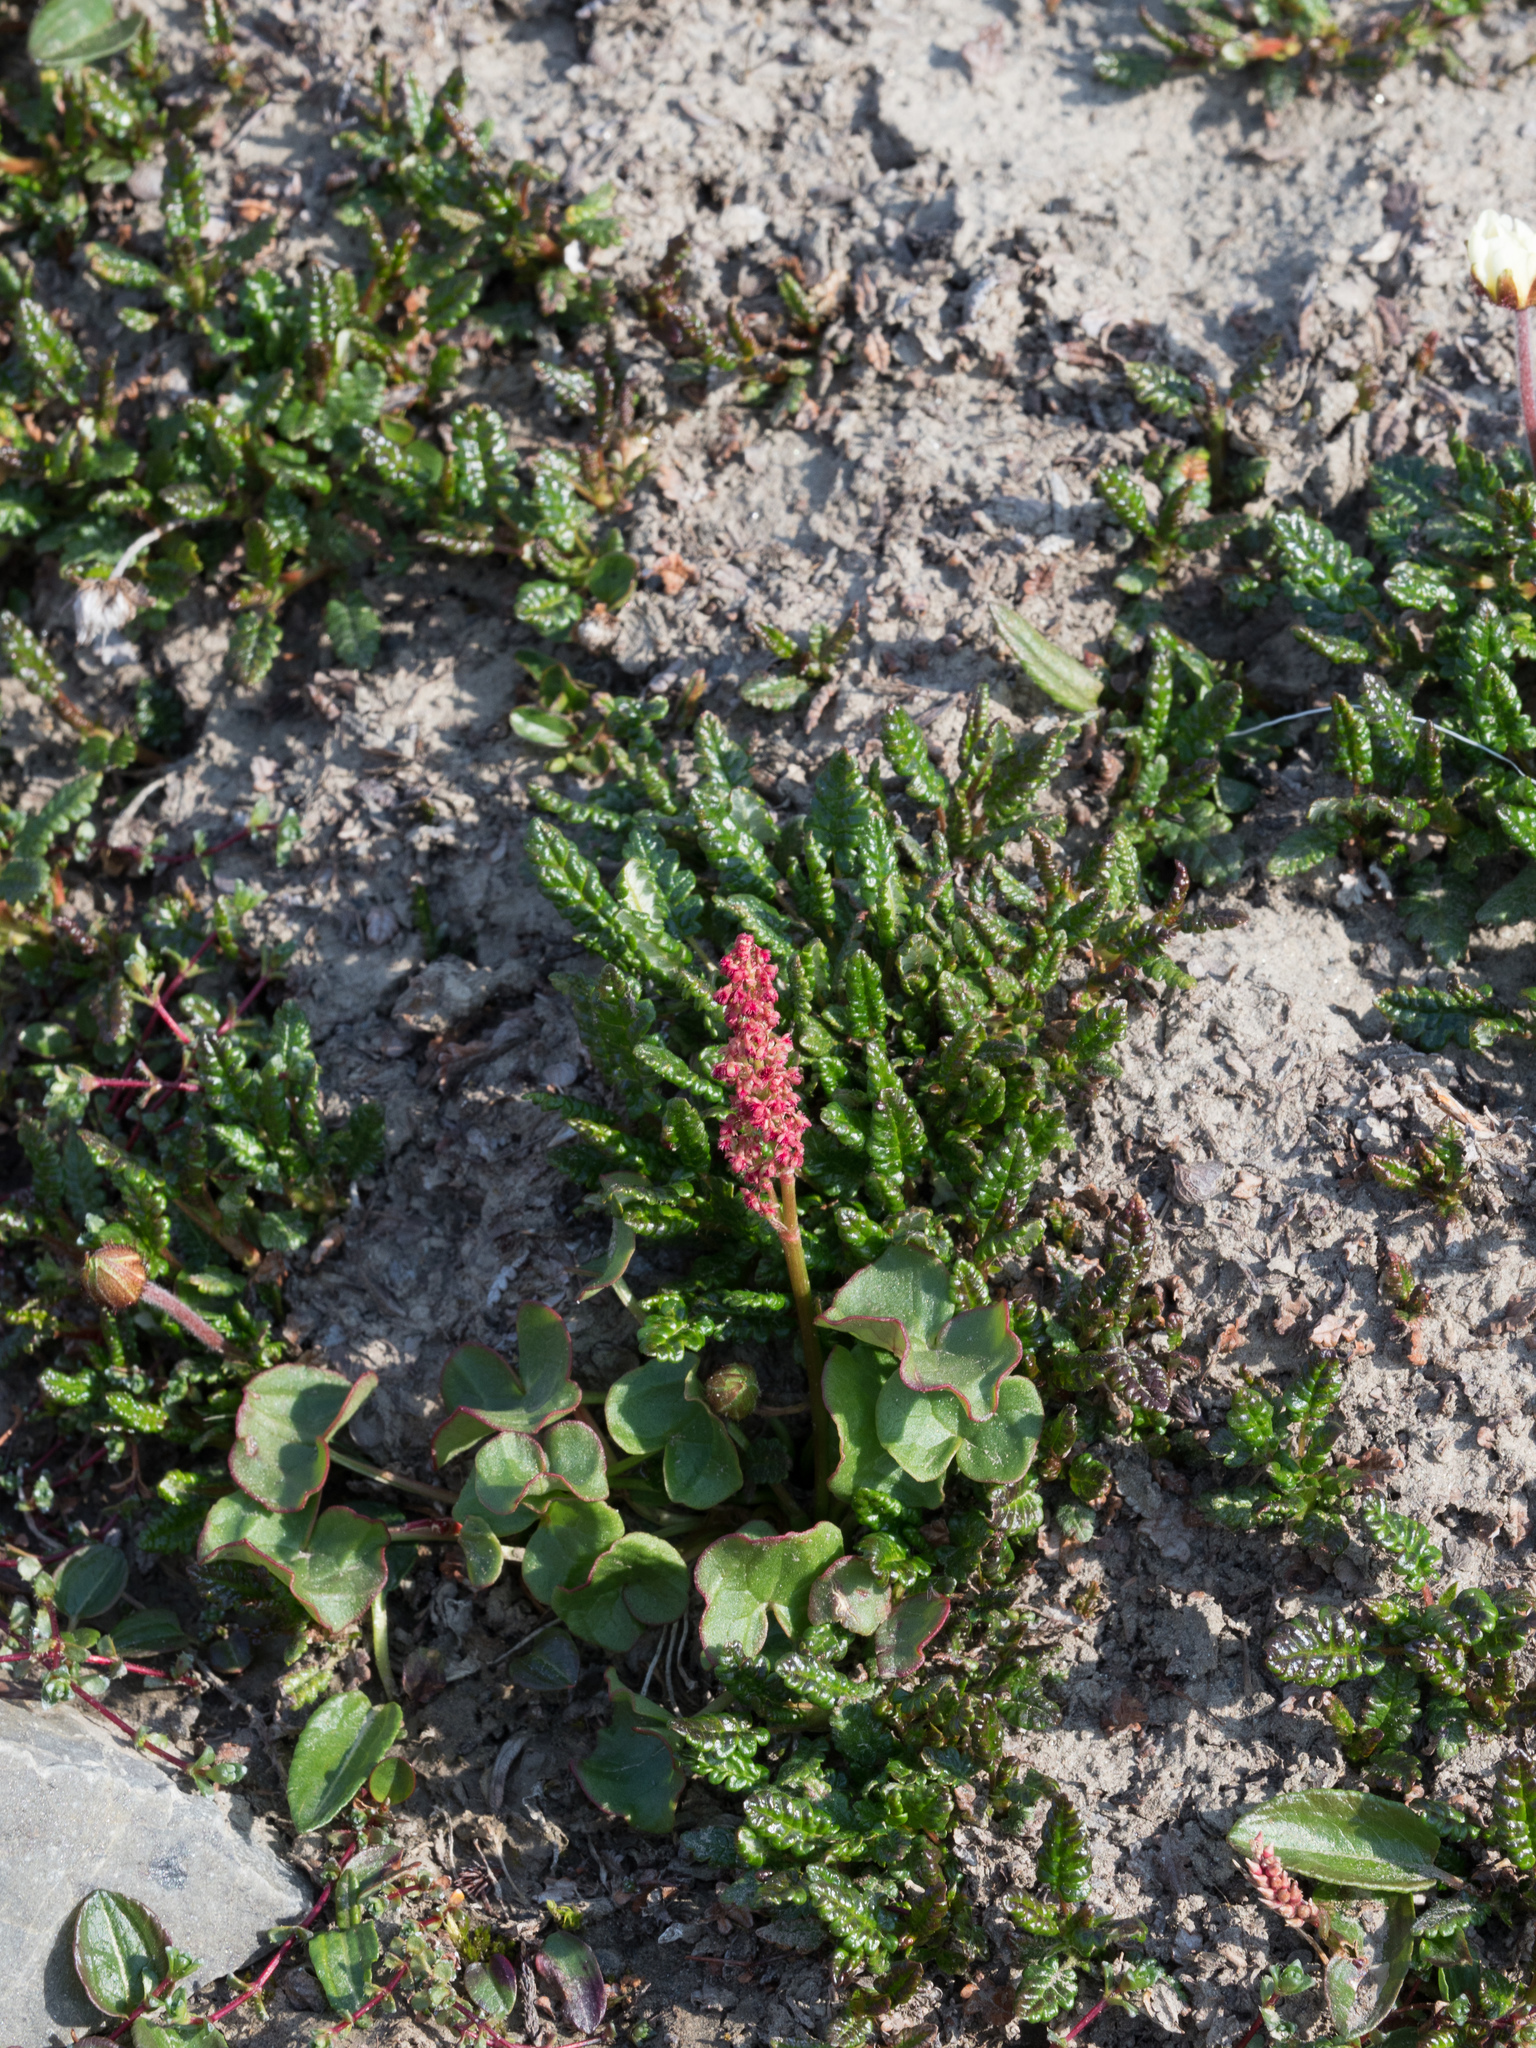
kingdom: Plantae
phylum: Tracheophyta
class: Magnoliopsida
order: Caryophyllales
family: Polygonaceae
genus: Oxyria
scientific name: Oxyria digyna
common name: Alpine mountain-sorrel
